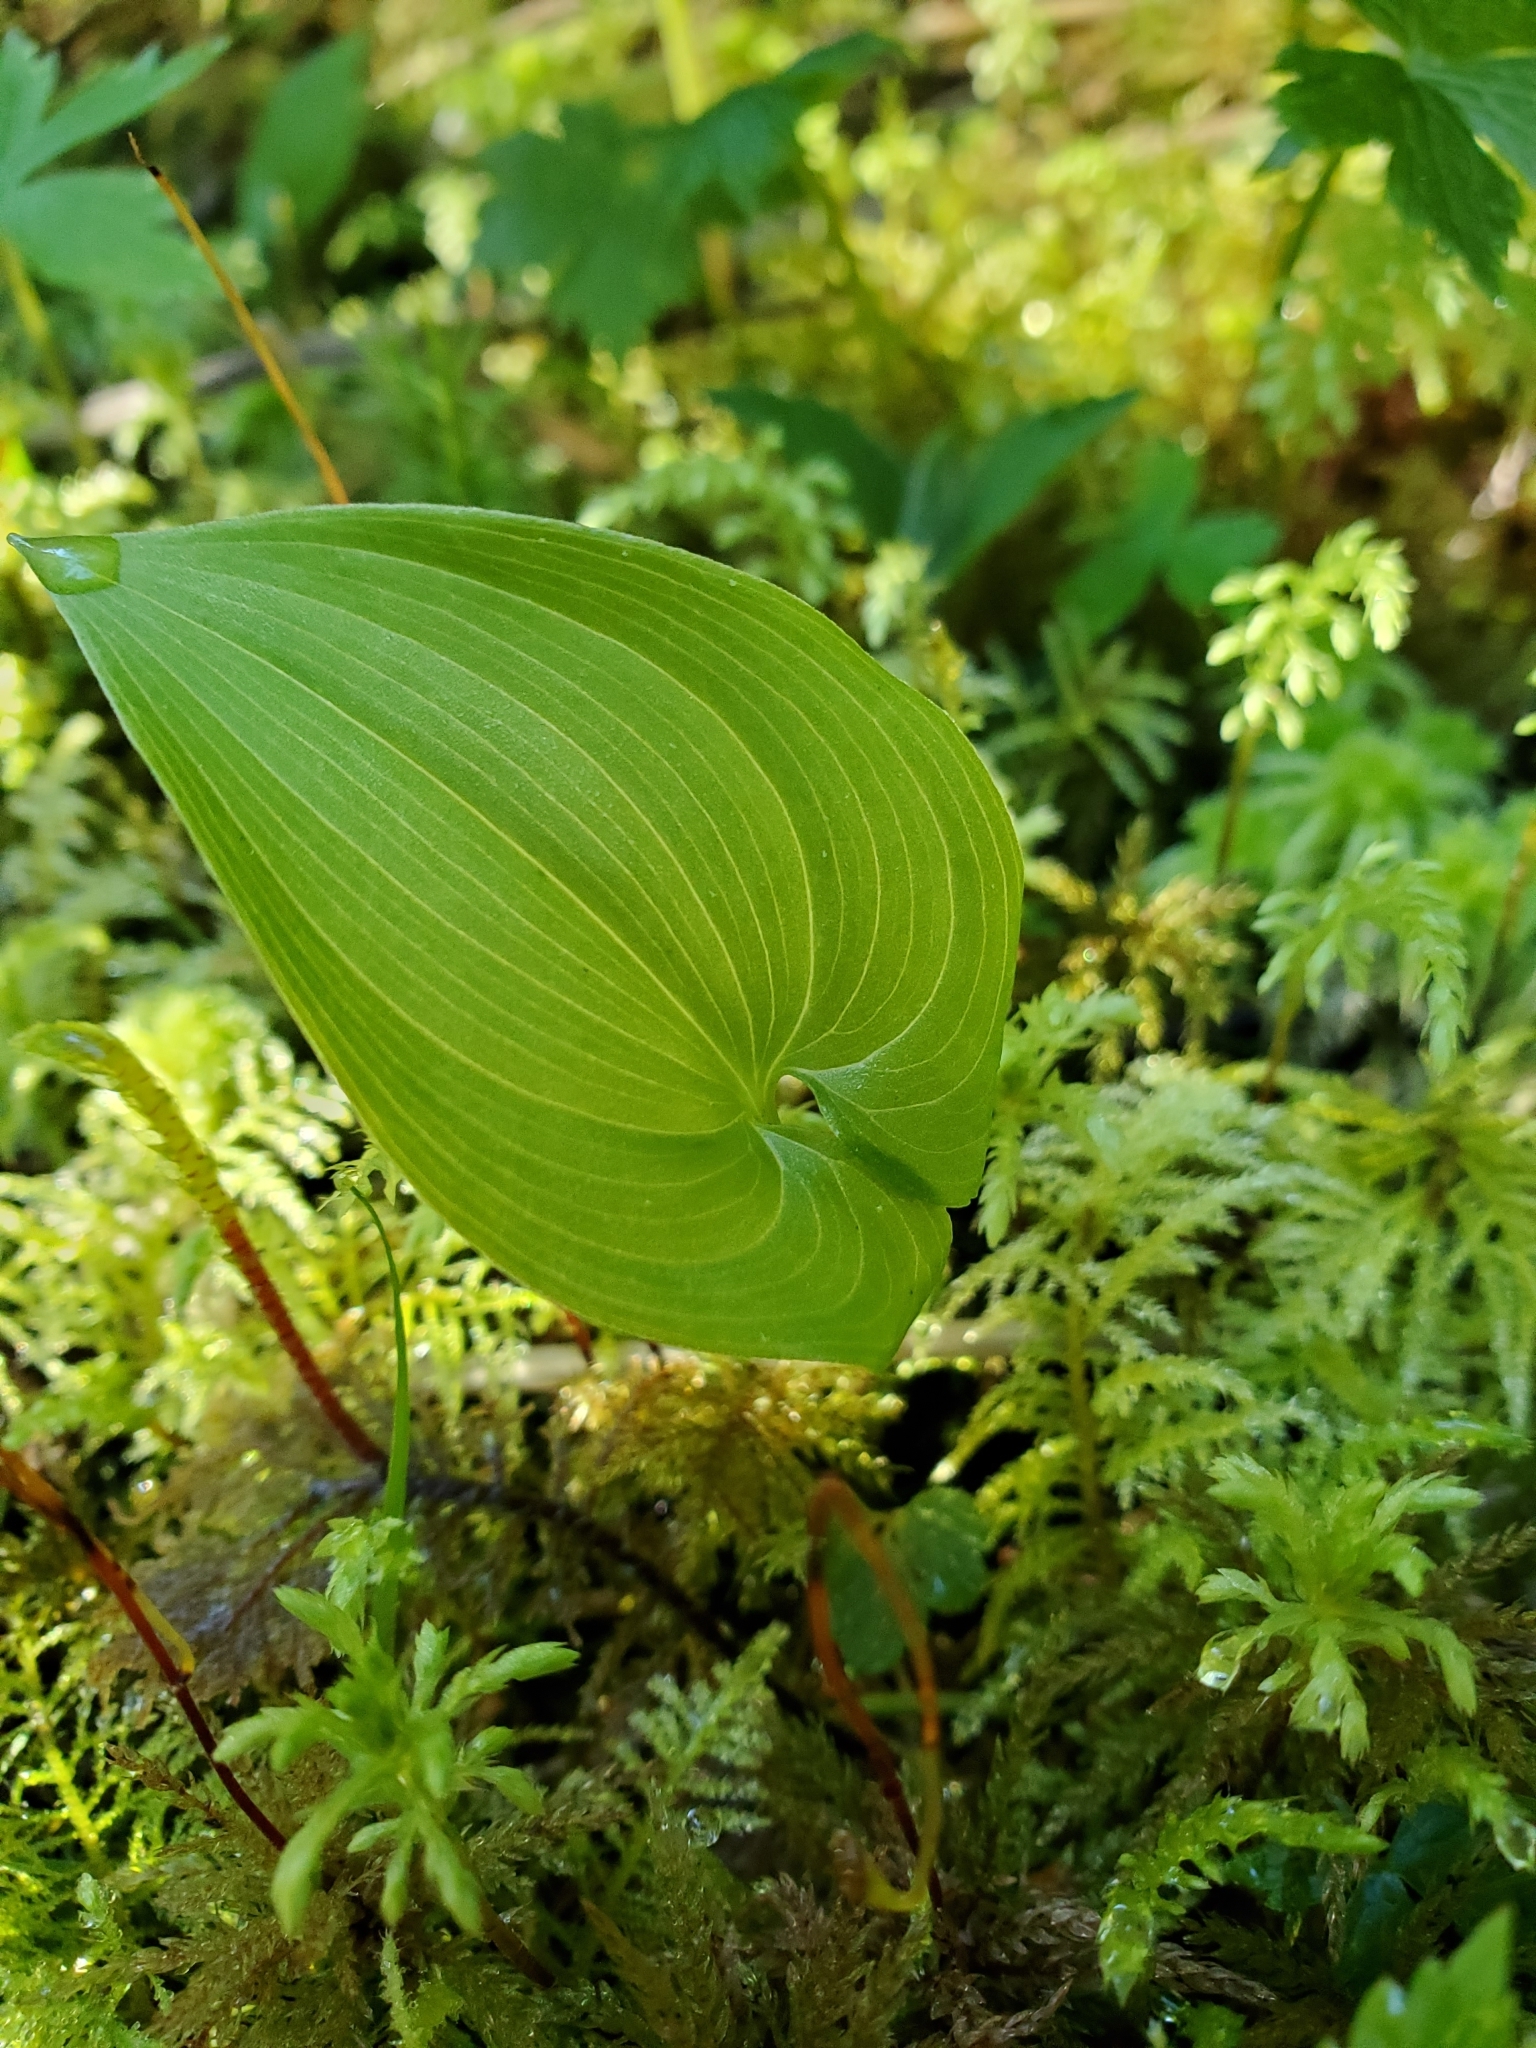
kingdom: Plantae
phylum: Tracheophyta
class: Liliopsida
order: Asparagales
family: Asparagaceae
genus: Maianthemum
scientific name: Maianthemum dilatatum
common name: False lily-of-the-valley
